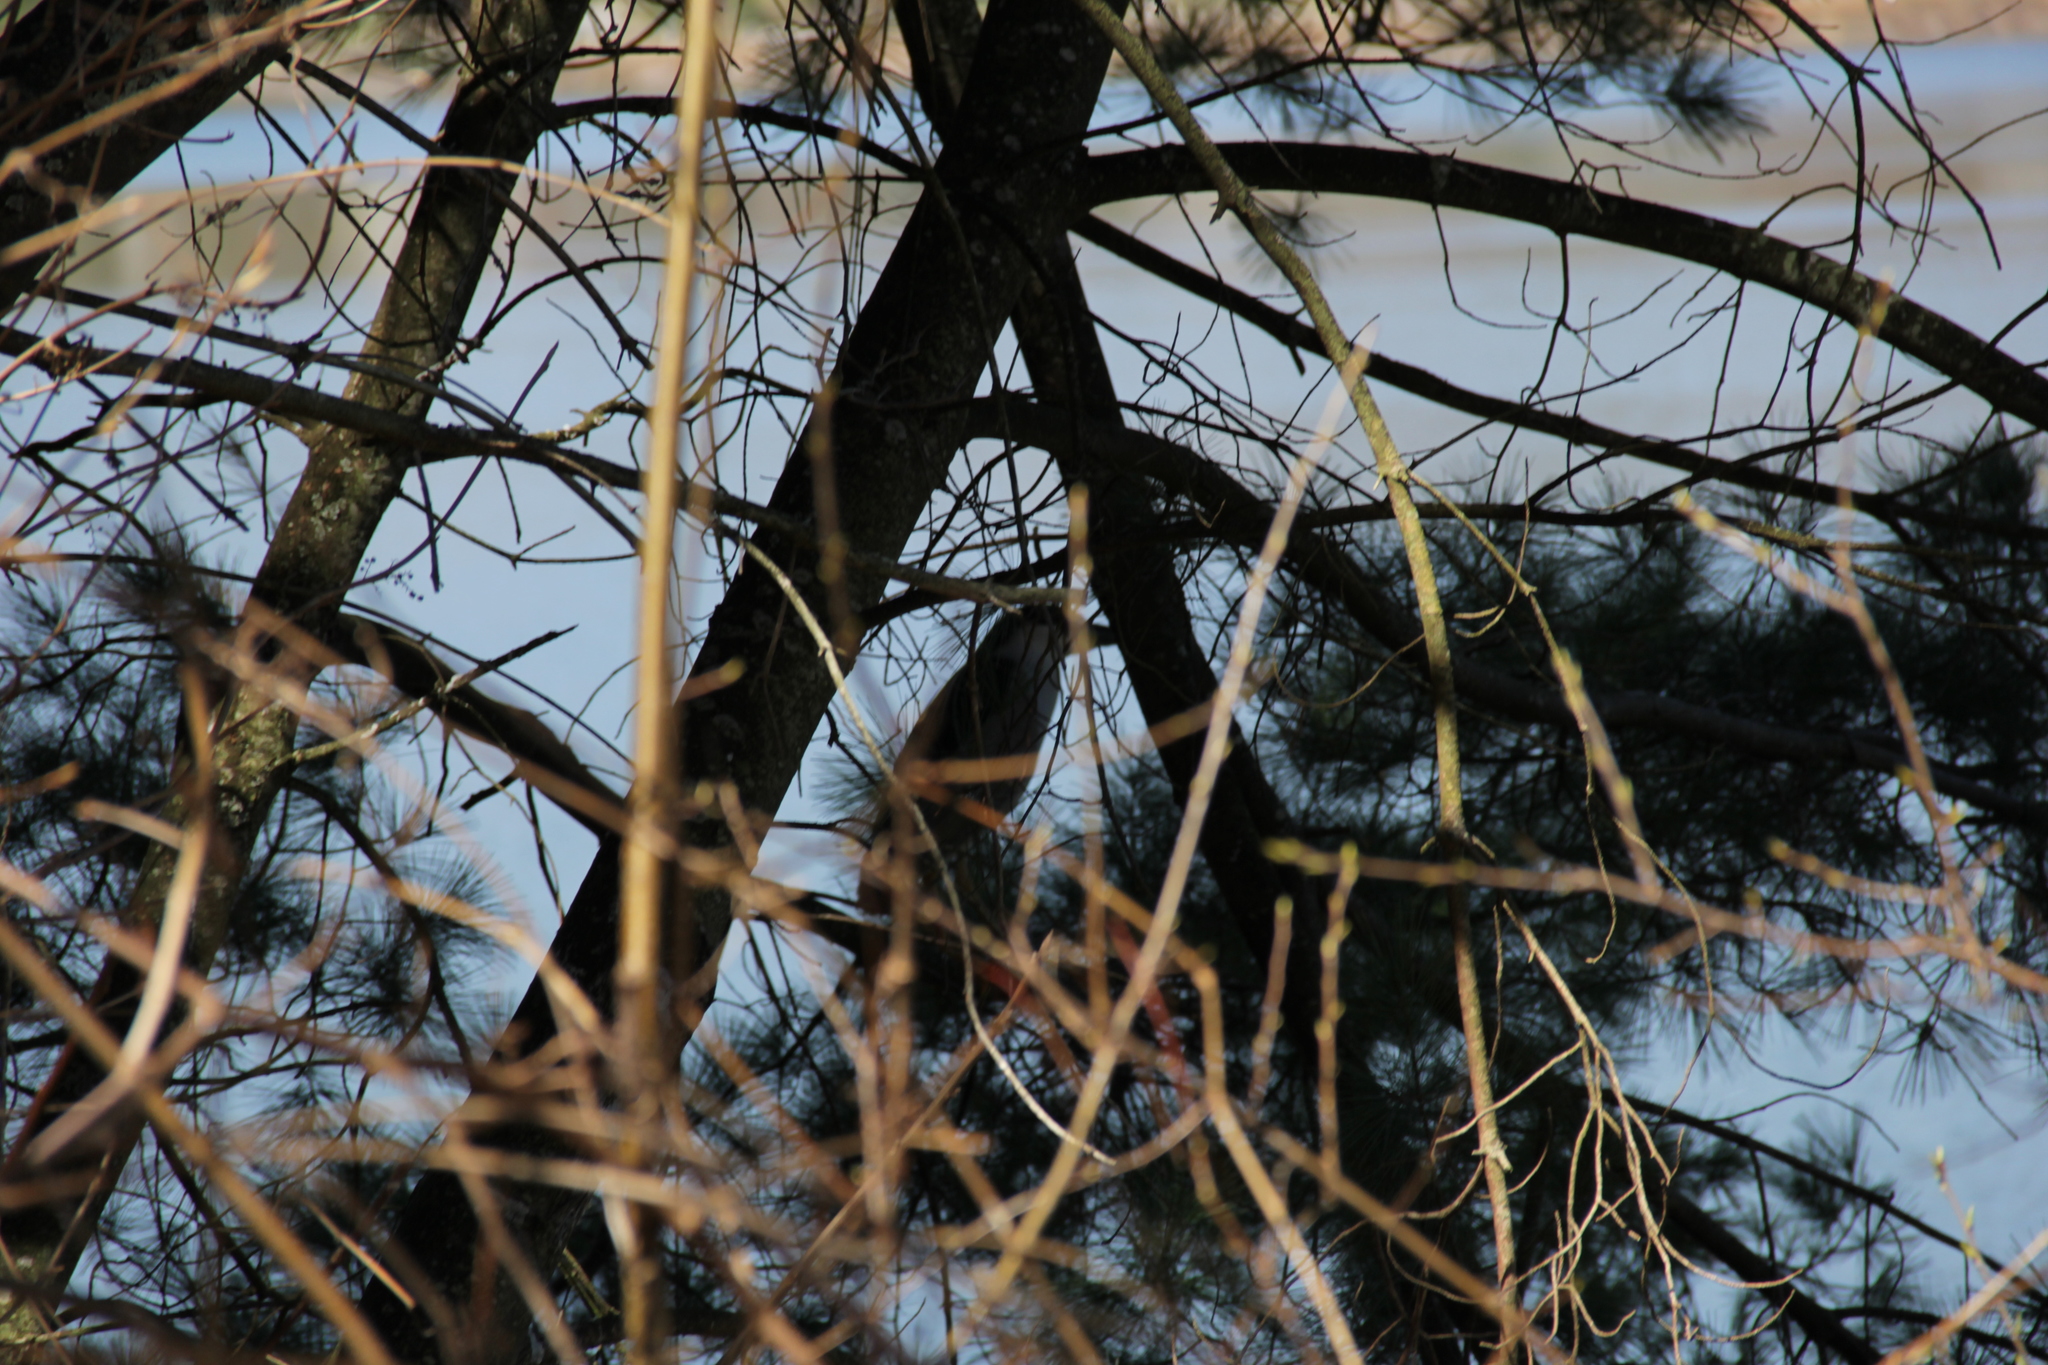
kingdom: Animalia
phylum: Chordata
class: Aves
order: Pelecaniformes
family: Ardeidae
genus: Nycticorax
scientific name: Nycticorax nycticorax
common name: Black-crowned night heron
